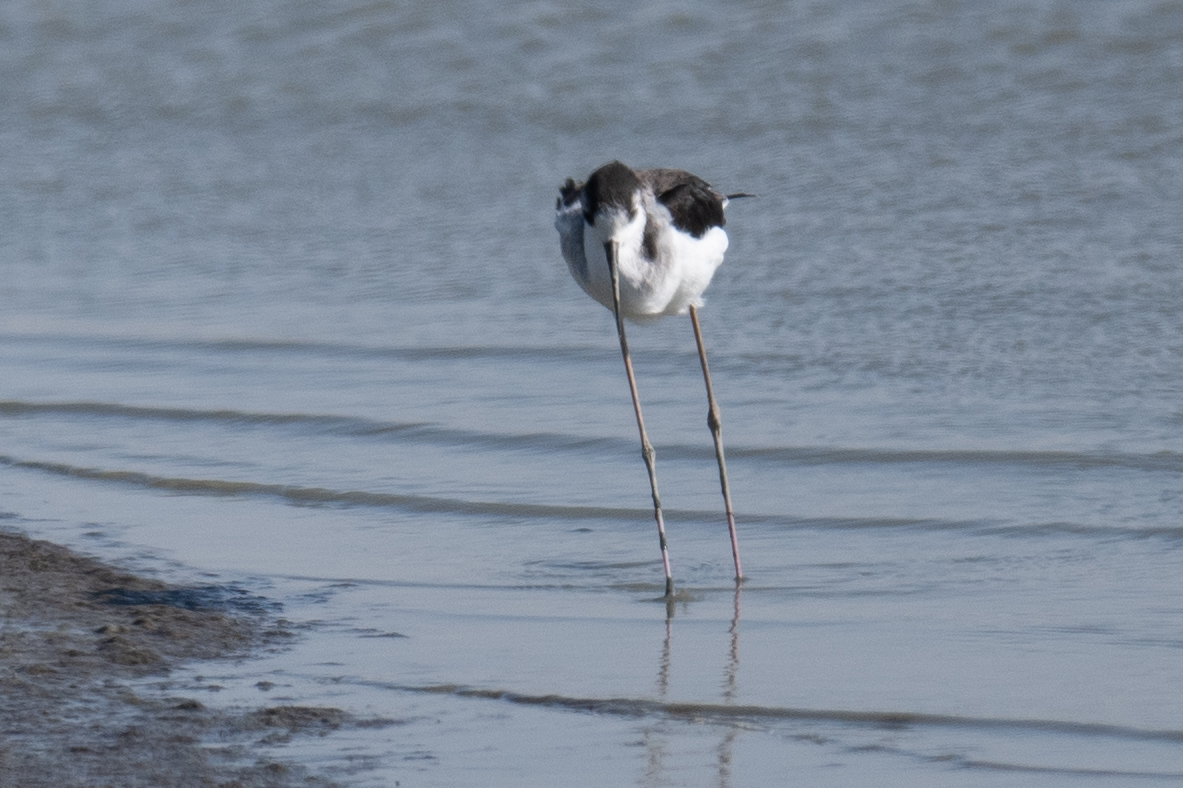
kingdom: Animalia
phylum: Chordata
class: Aves
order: Charadriiformes
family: Recurvirostridae
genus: Himantopus
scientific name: Himantopus mexicanus
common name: Black-necked stilt
